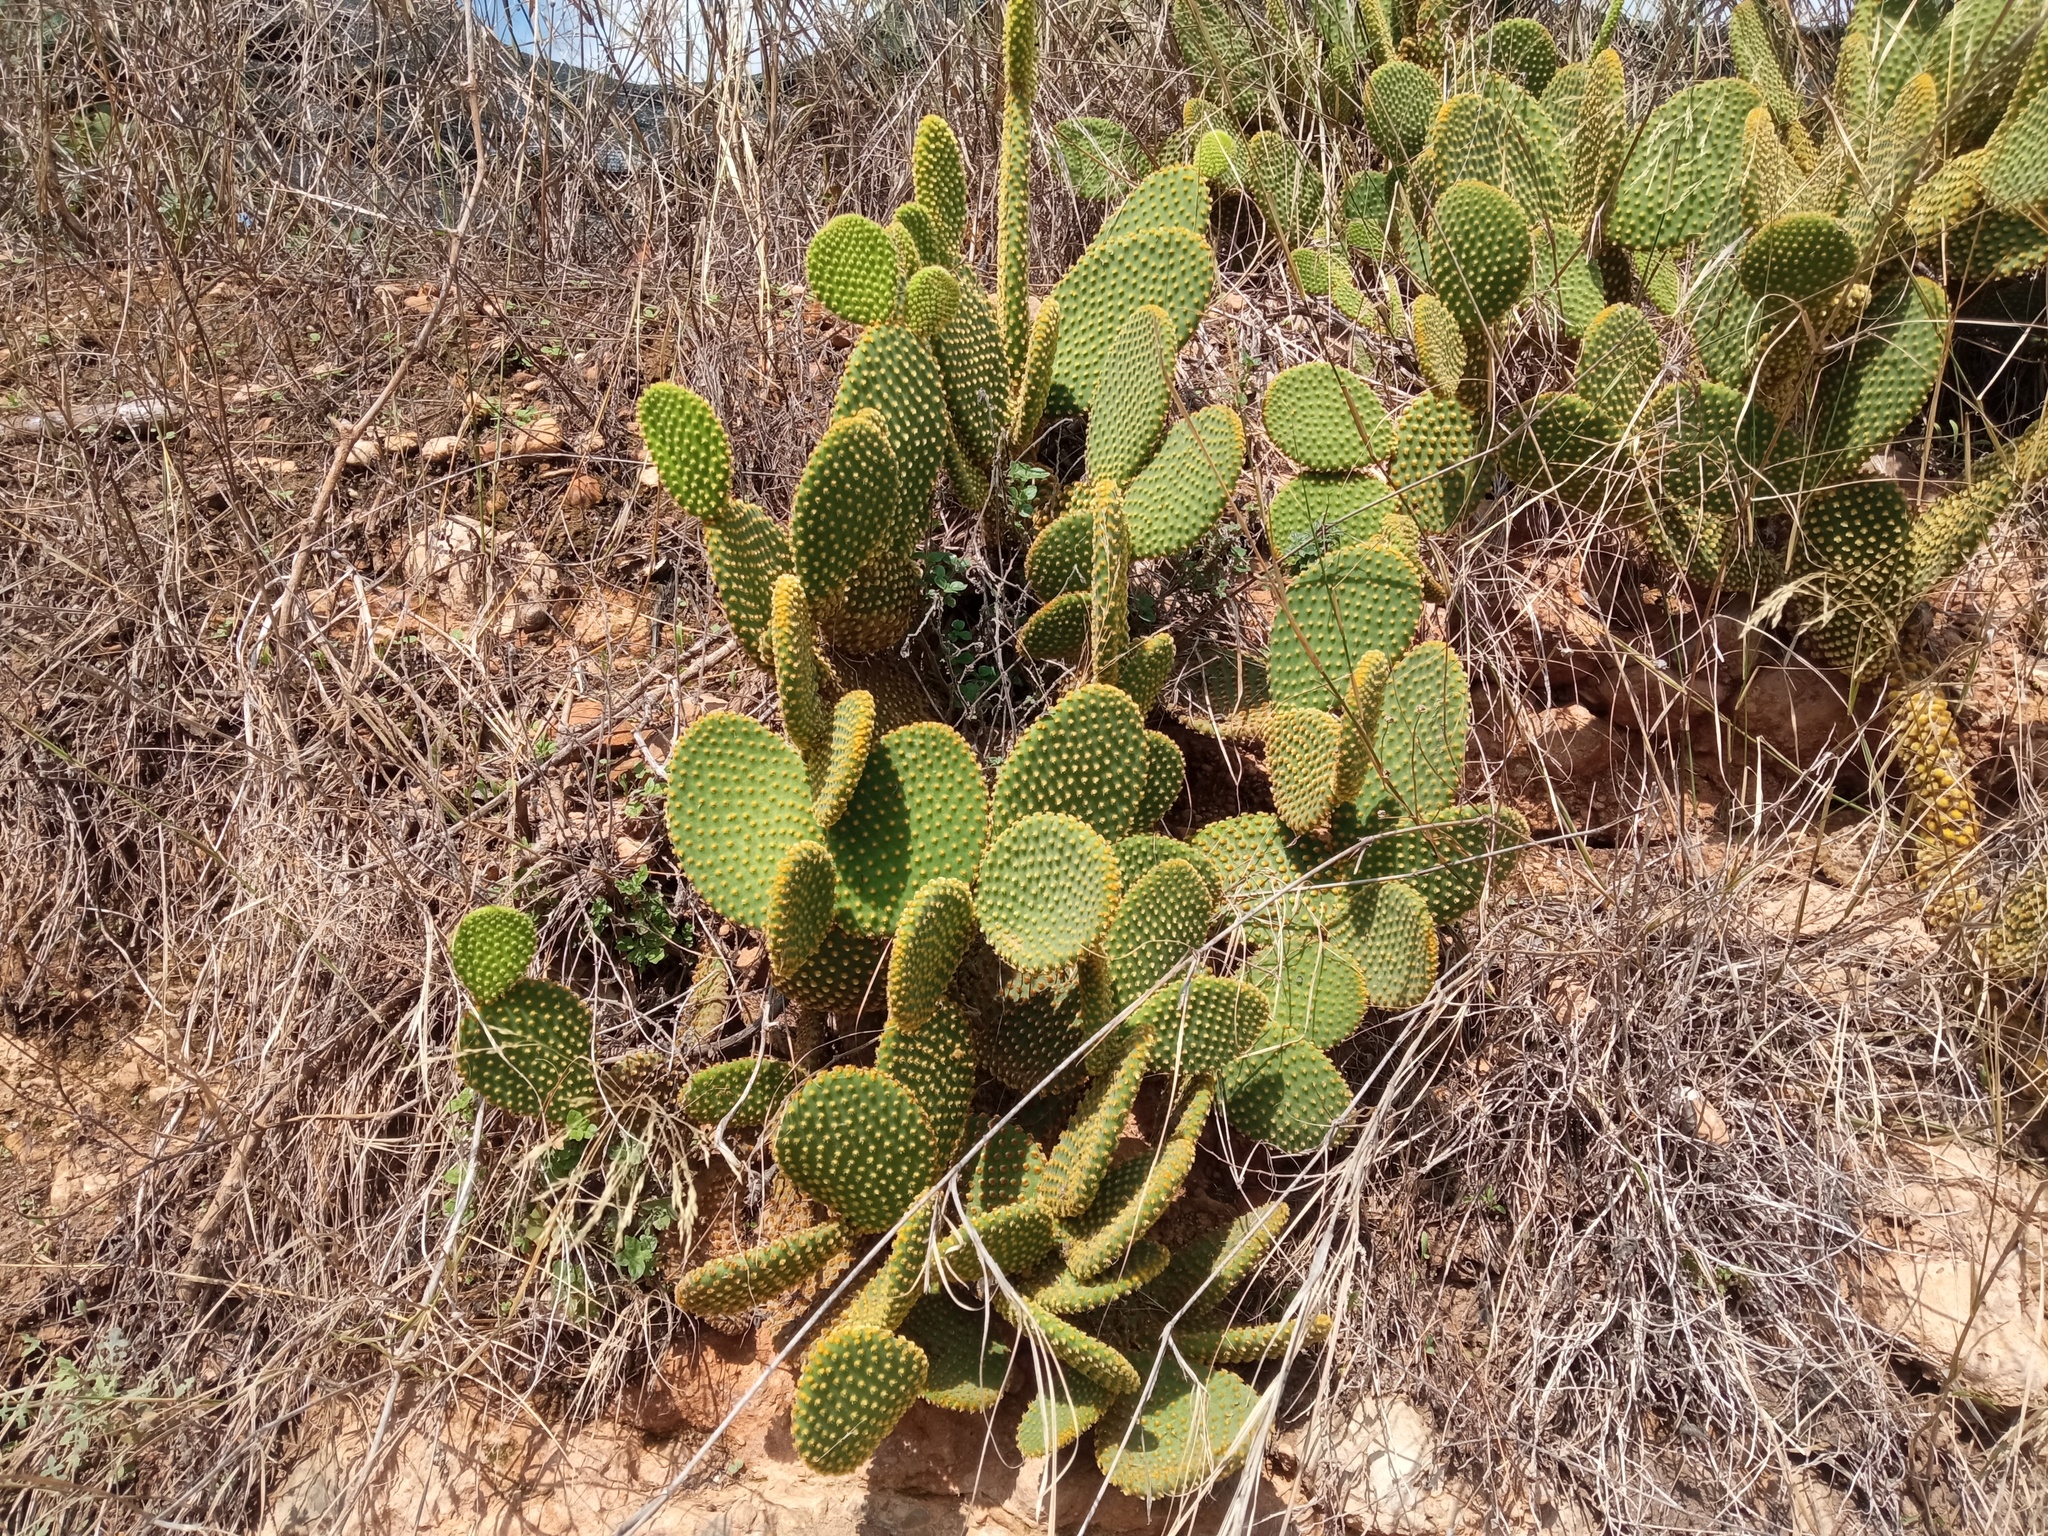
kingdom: Plantae
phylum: Tracheophyta
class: Magnoliopsida
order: Caryophyllales
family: Cactaceae
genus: Opuntia
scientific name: Opuntia microdasys
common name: Angel's-wings
